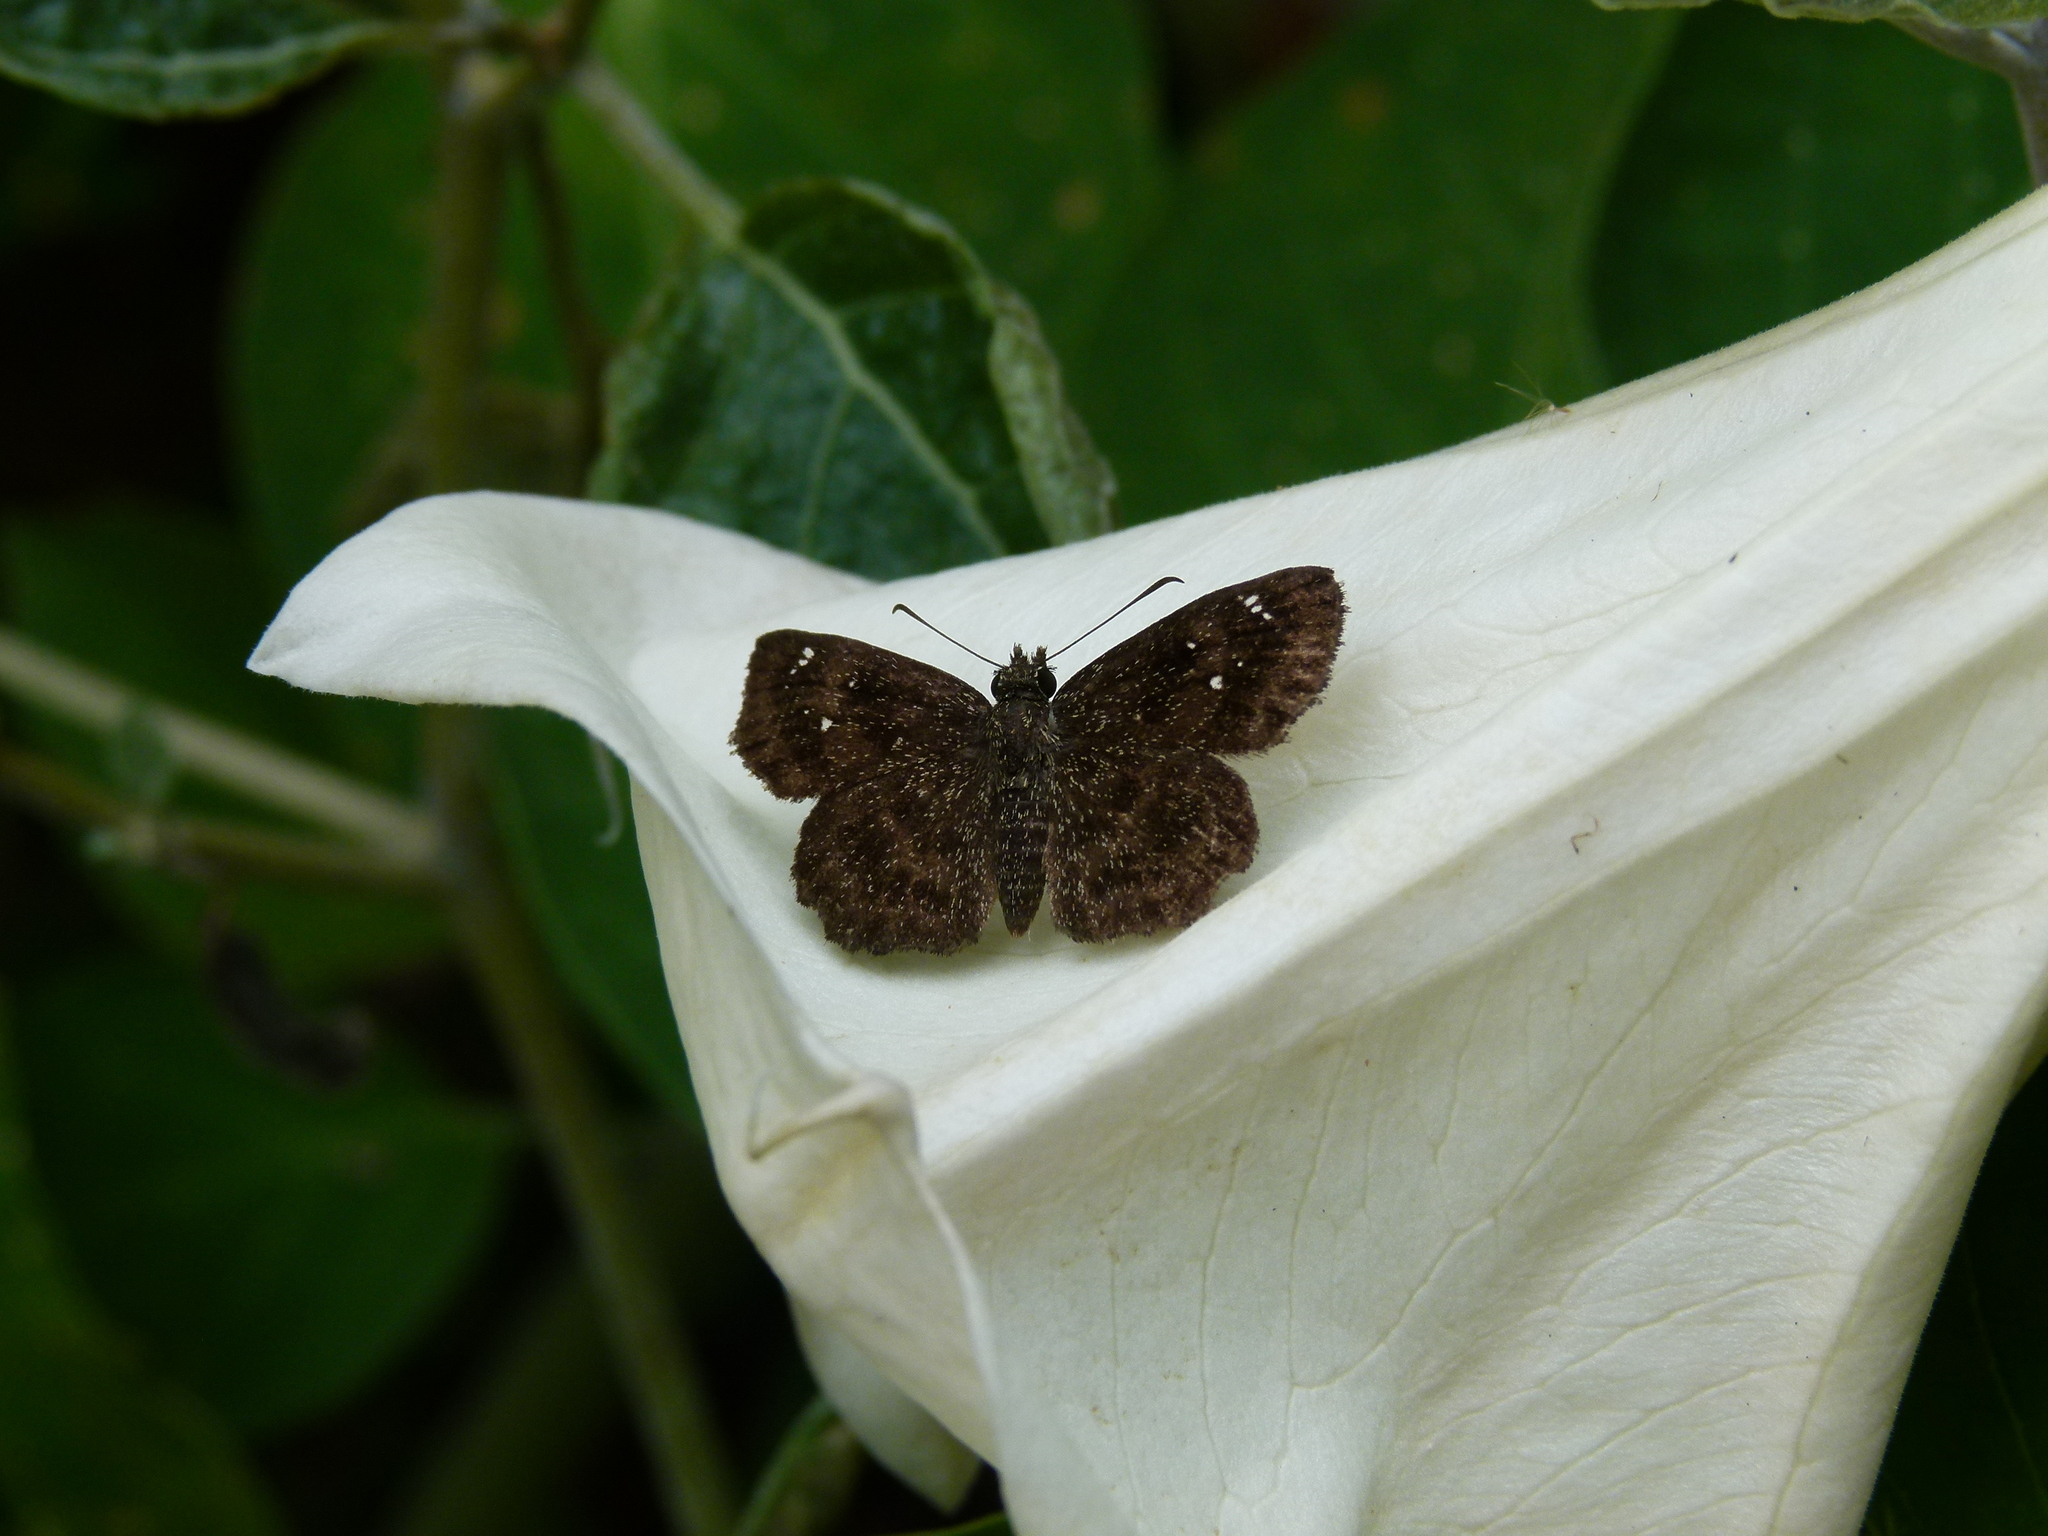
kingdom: Animalia
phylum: Arthropoda
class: Insecta
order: Lepidoptera
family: Hesperiidae
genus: Staphylus
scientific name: Staphylus mazans
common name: Mazans scallopwing
